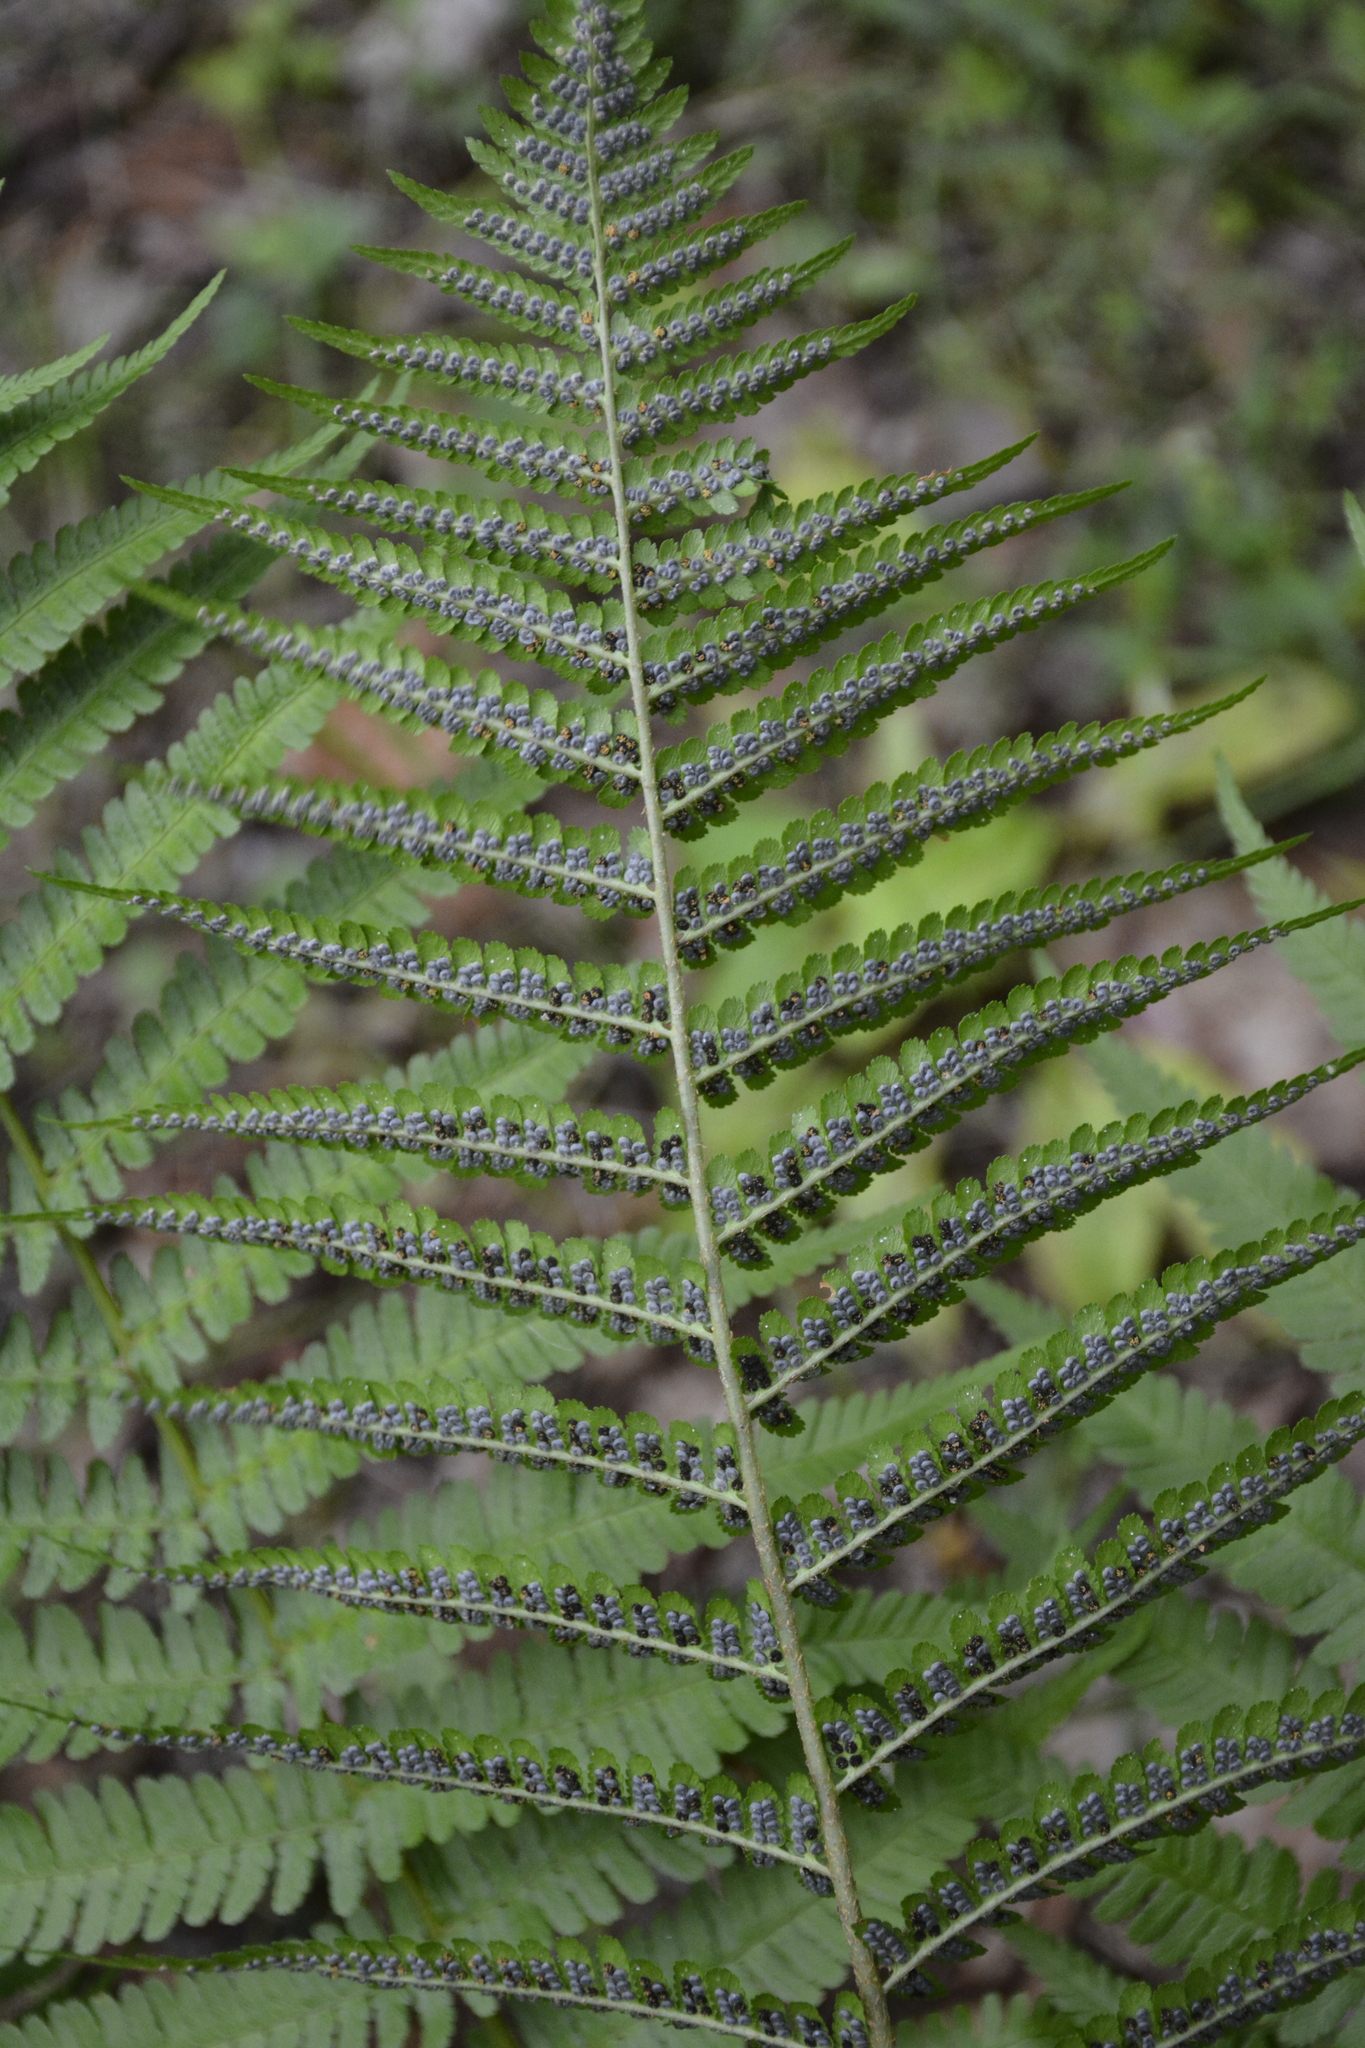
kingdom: Plantae
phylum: Tracheophyta
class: Polypodiopsida
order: Polypodiales
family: Dryopteridaceae
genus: Dryopteris
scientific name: Dryopteris filix-mas
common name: Male fern
